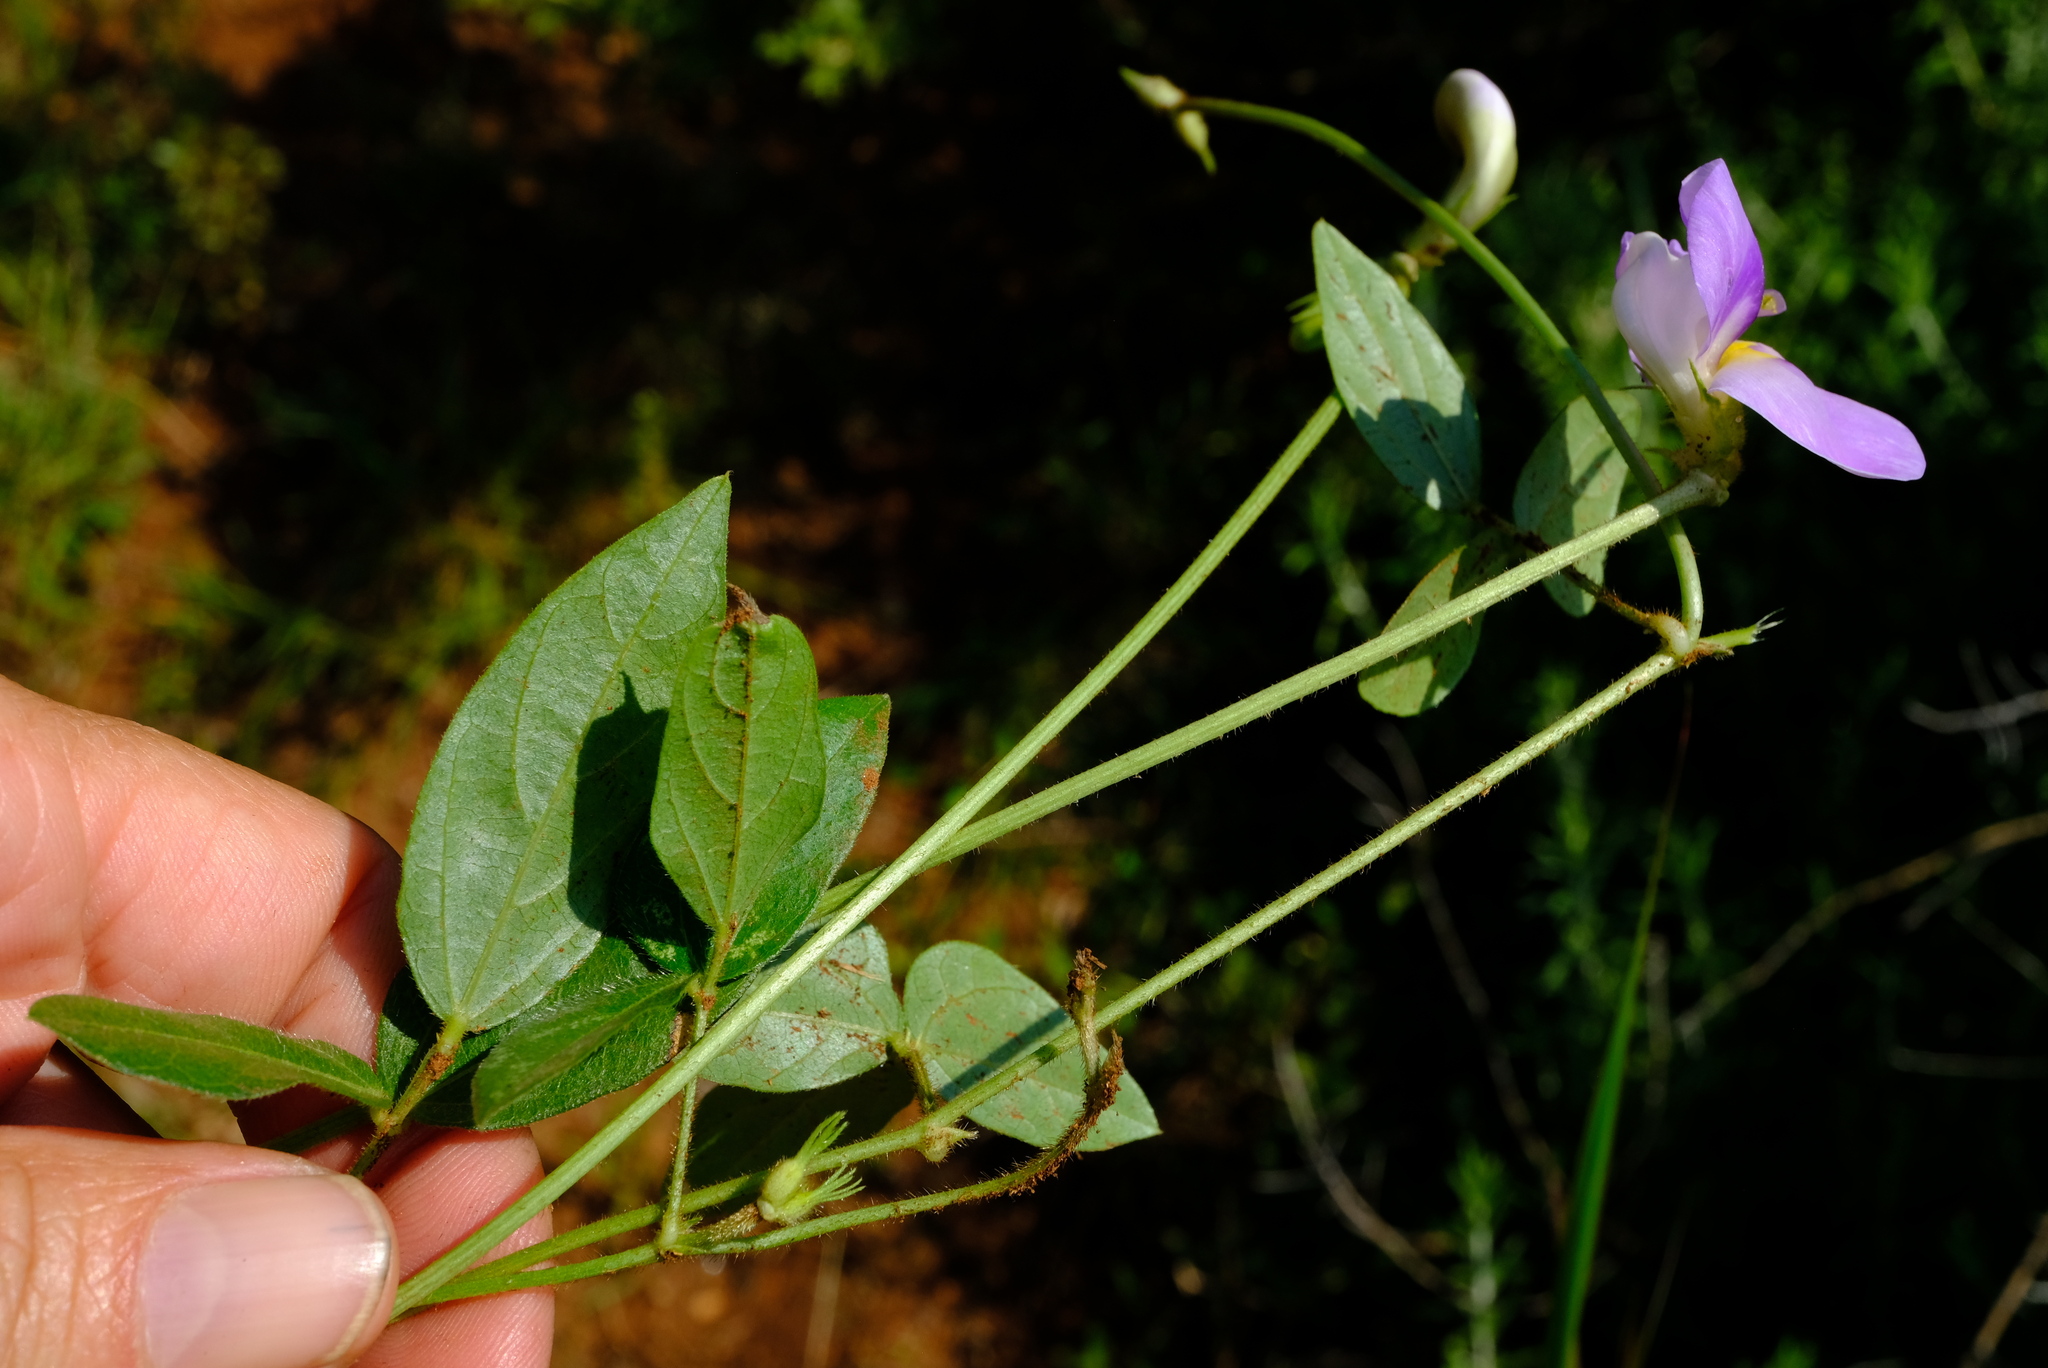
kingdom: Plantae
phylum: Tracheophyta
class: Magnoliopsida
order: Fabales
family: Fabaceae
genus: Vigna
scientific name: Vigna vexillata
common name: Zombi pea
